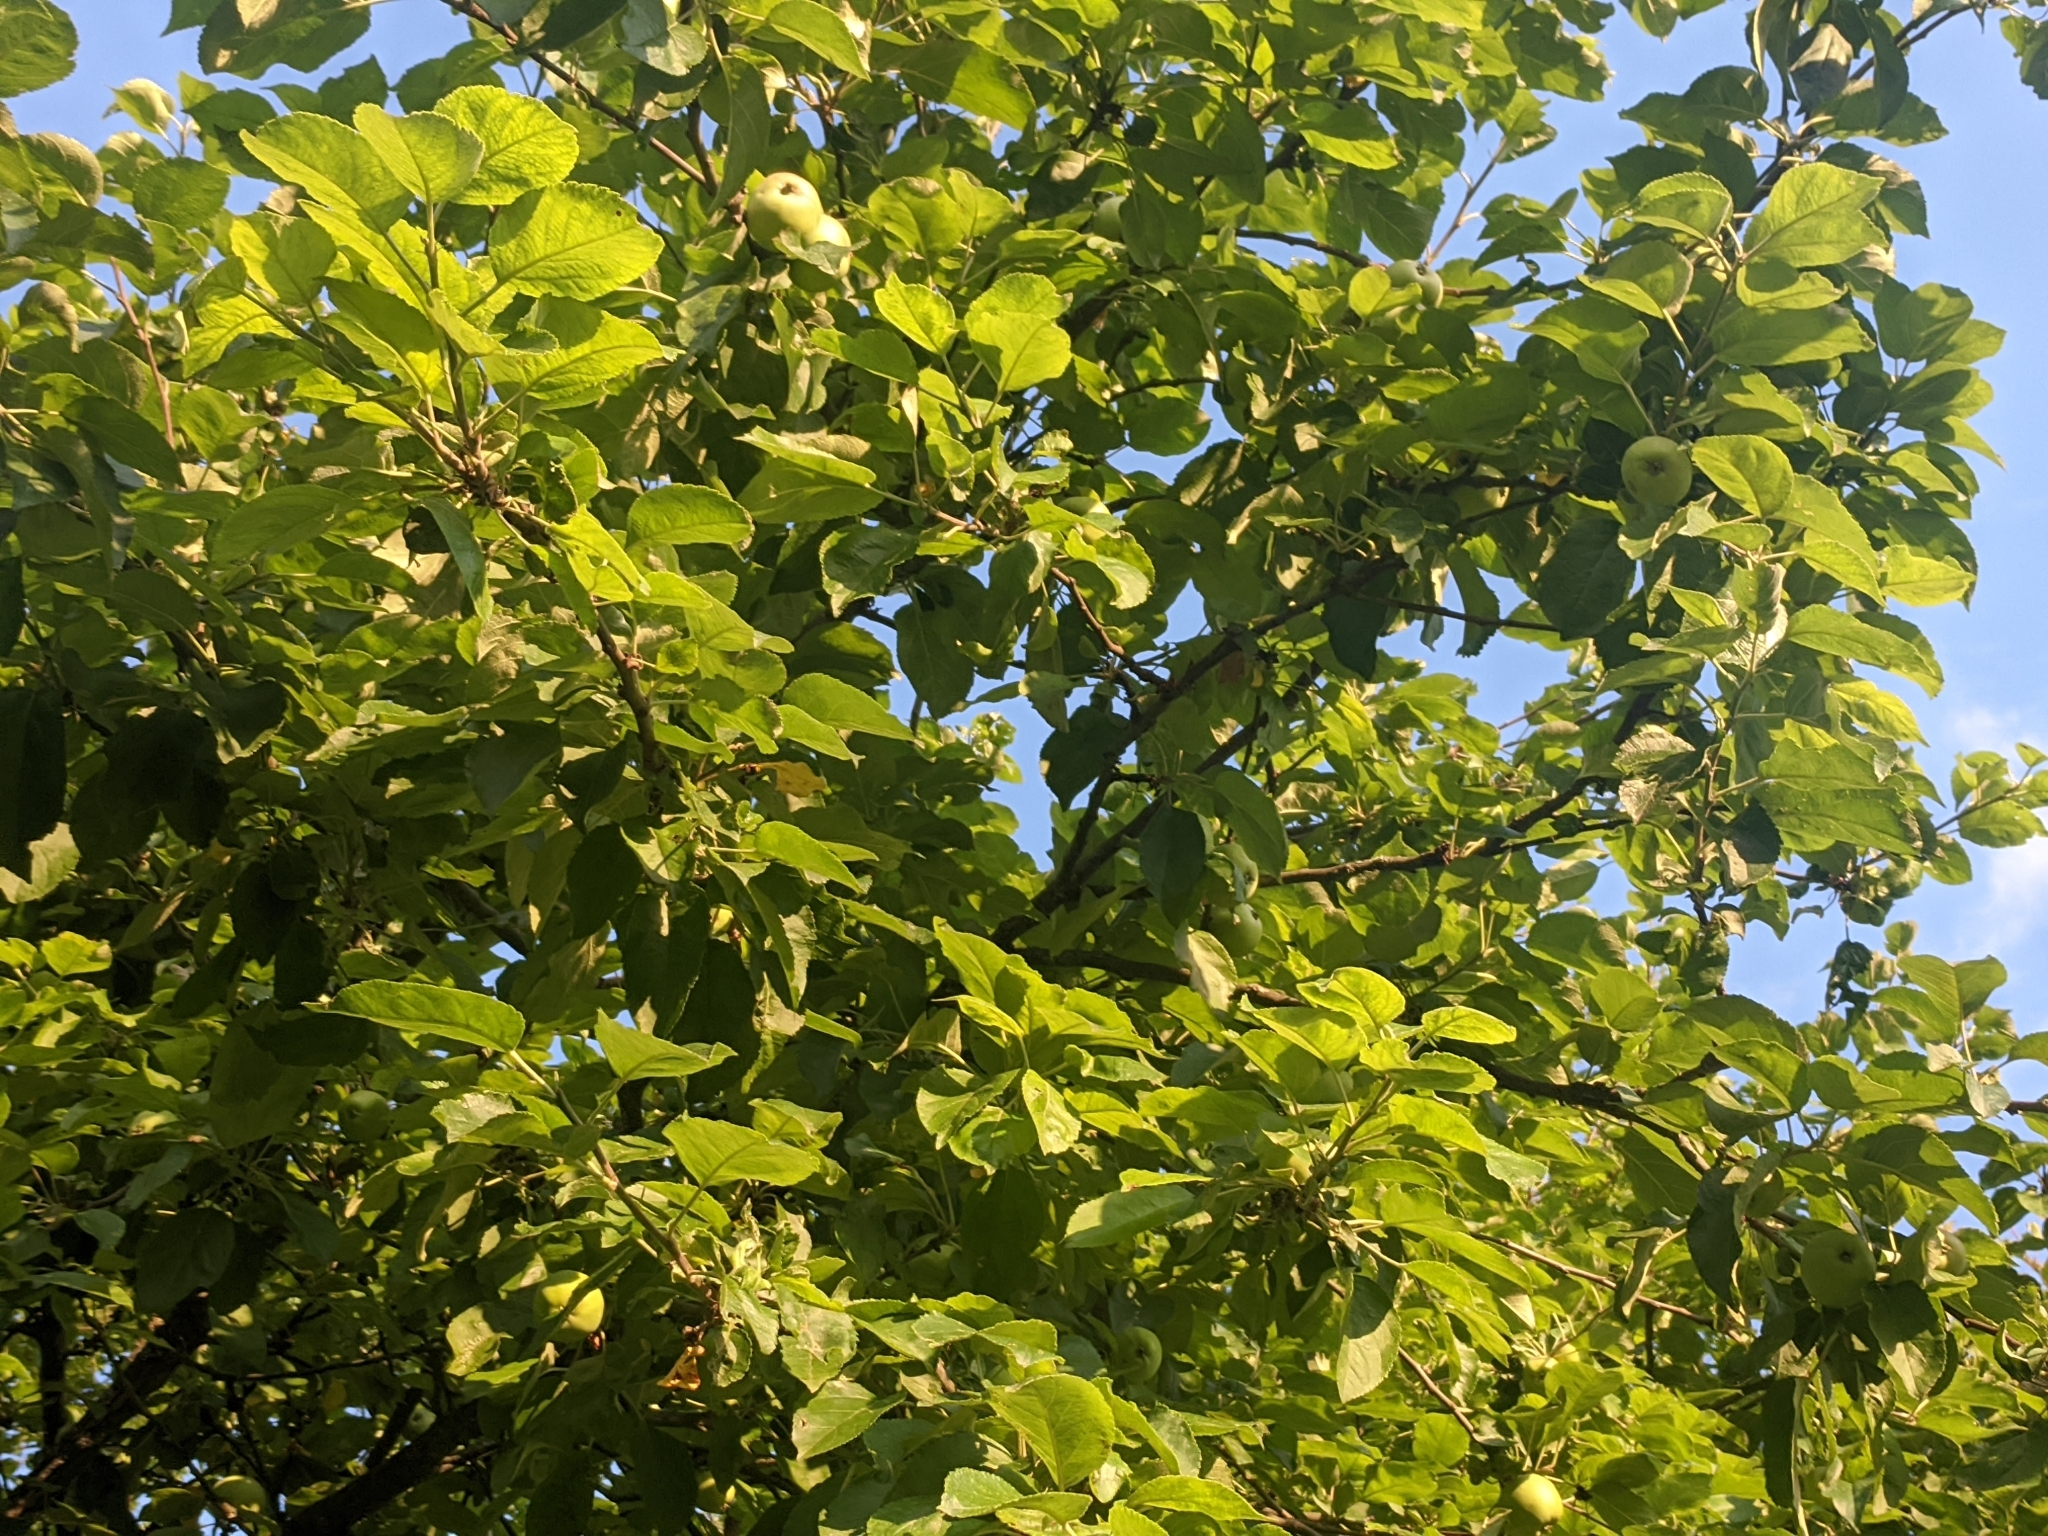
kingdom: Plantae
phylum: Tracheophyta
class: Magnoliopsida
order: Rosales
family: Rosaceae
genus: Malus
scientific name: Malus sylvestris
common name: Crab apple
